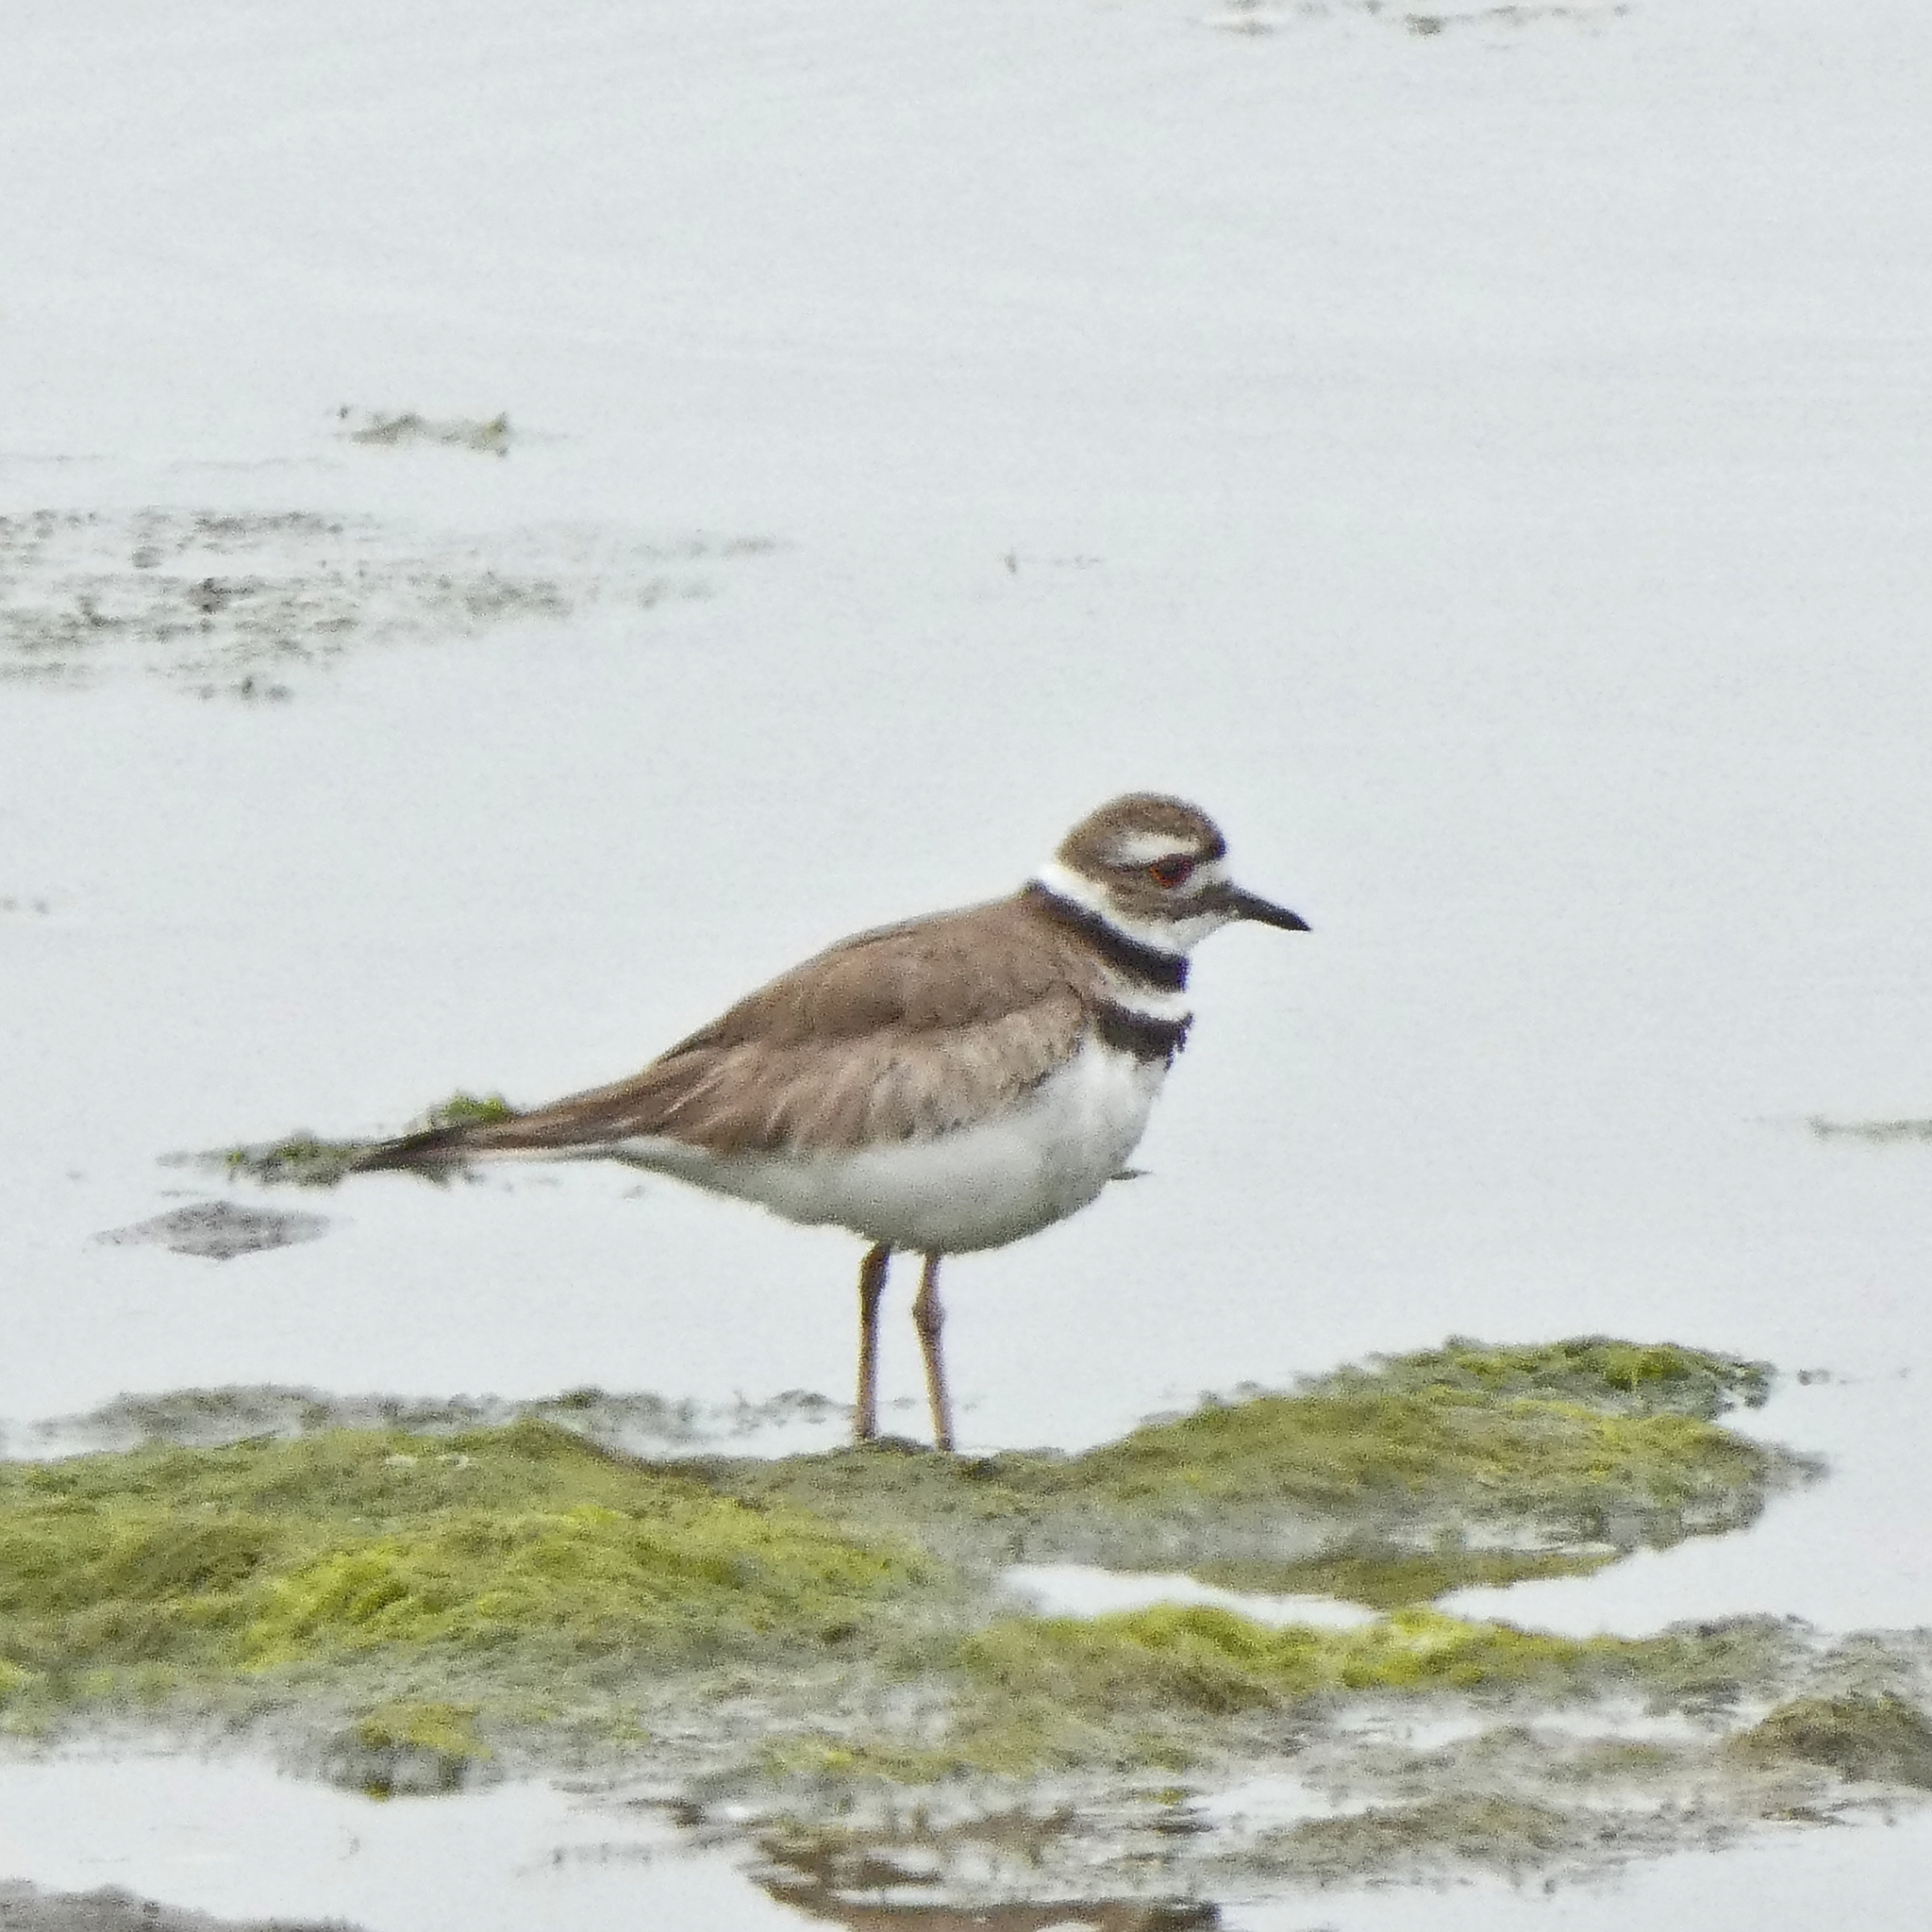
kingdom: Animalia
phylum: Chordata
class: Aves
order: Charadriiformes
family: Charadriidae
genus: Charadrius
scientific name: Charadrius vociferus
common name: Killdeer
